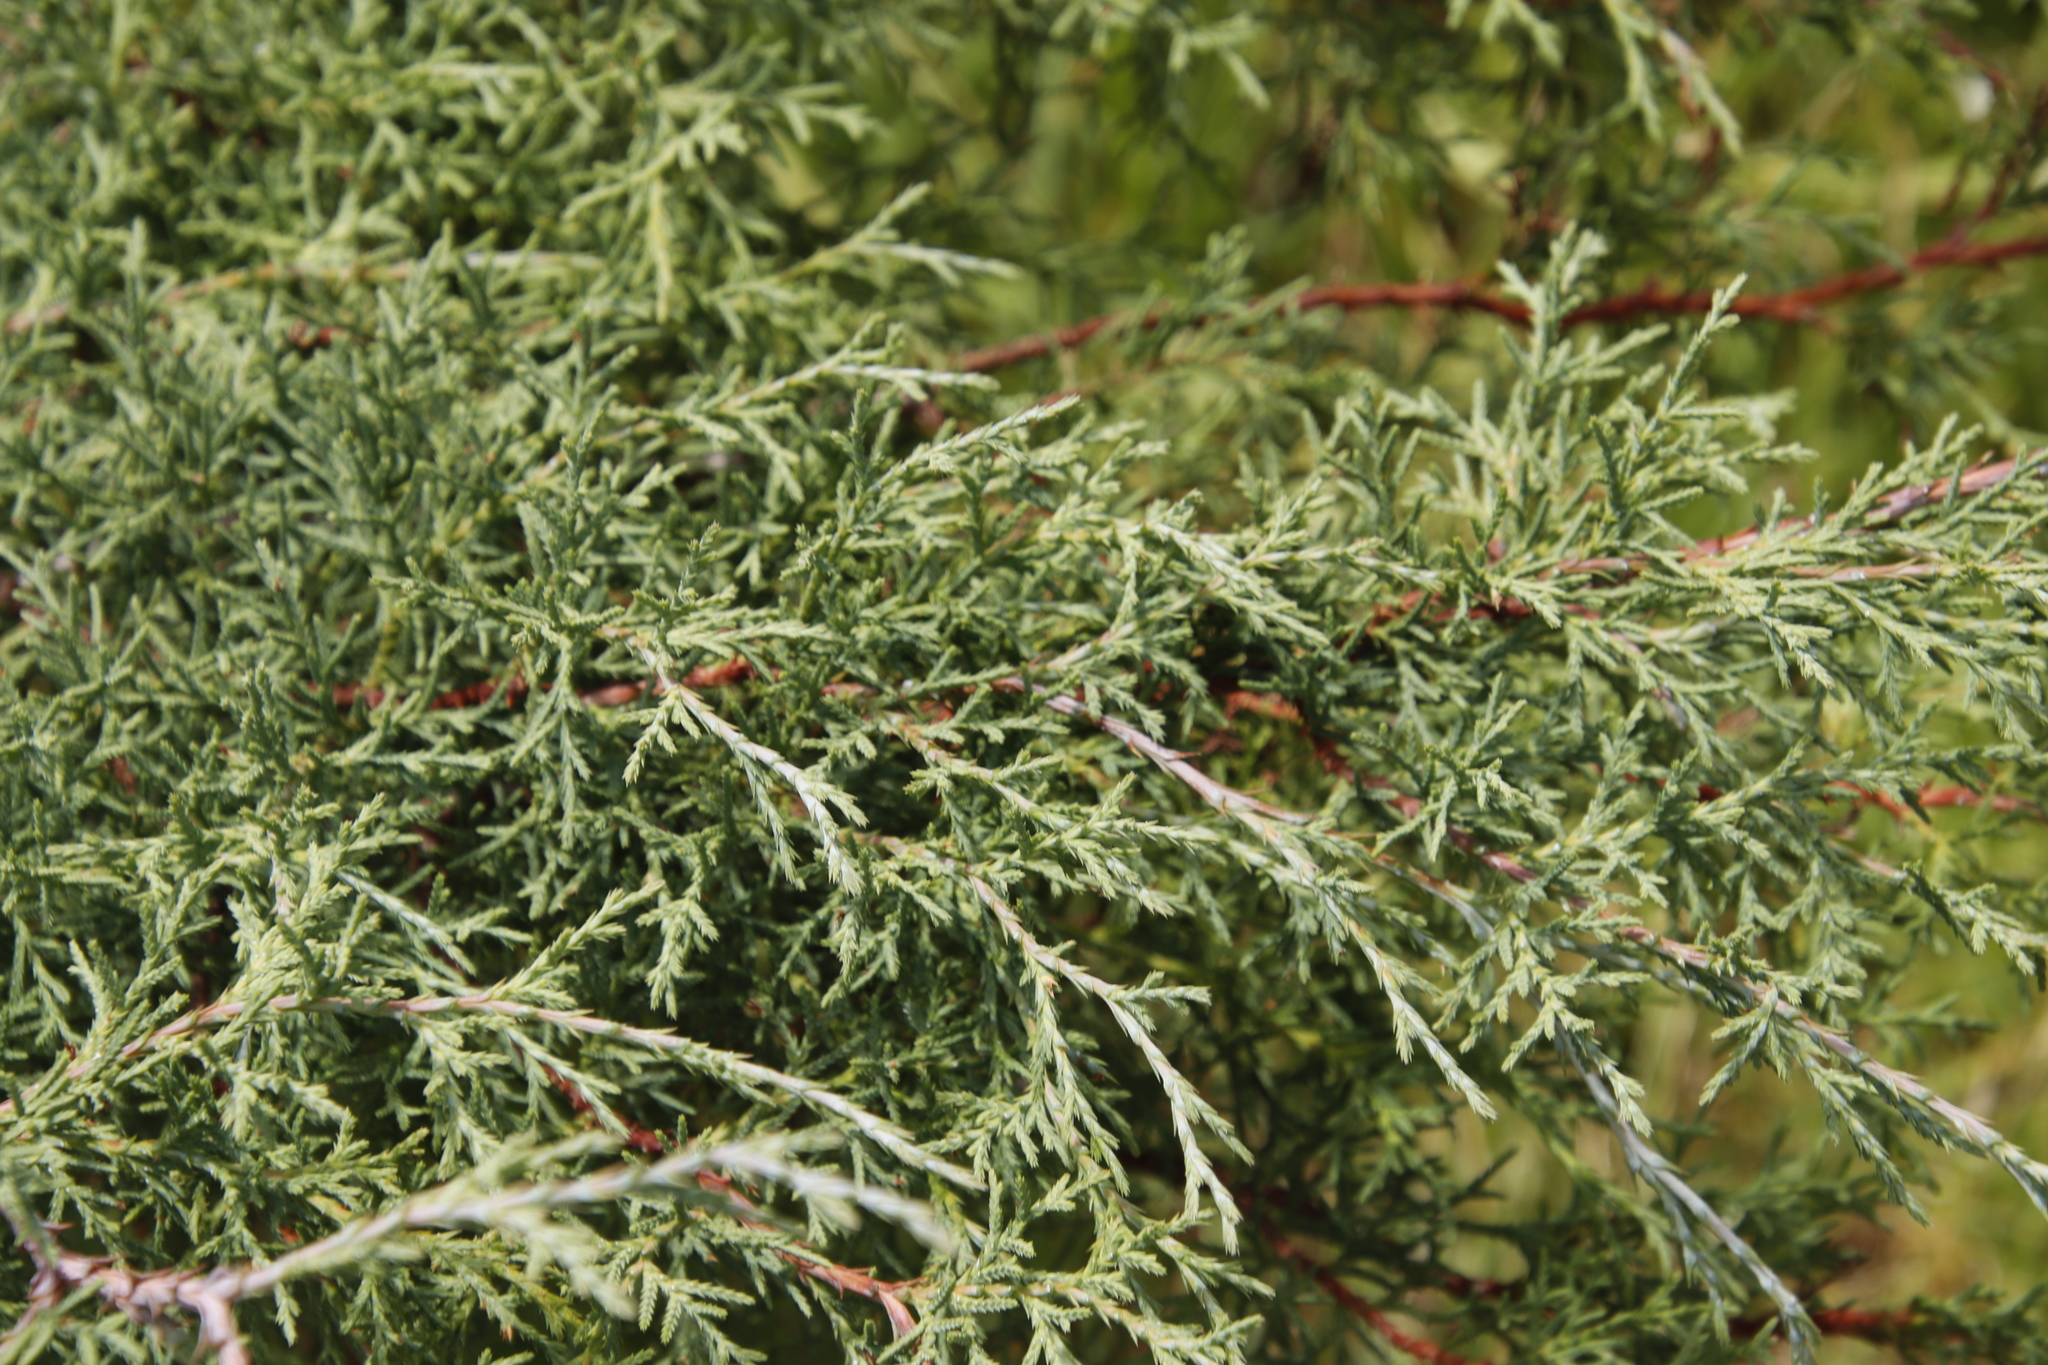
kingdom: Plantae
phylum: Tracheophyta
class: Pinopsida
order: Pinales
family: Cupressaceae
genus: Cupressus
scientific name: Cupressus lusitanica
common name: Mexican cypress
